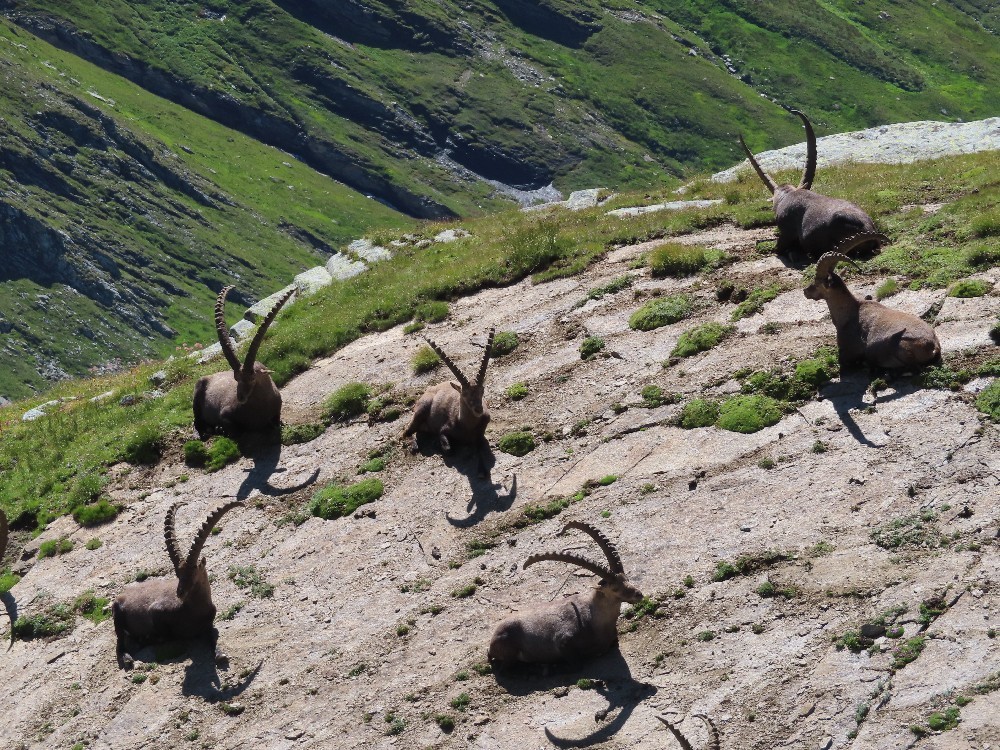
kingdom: Animalia
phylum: Chordata
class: Mammalia
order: Artiodactyla
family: Bovidae
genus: Capra
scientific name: Capra ibex
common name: Alpine ibex
